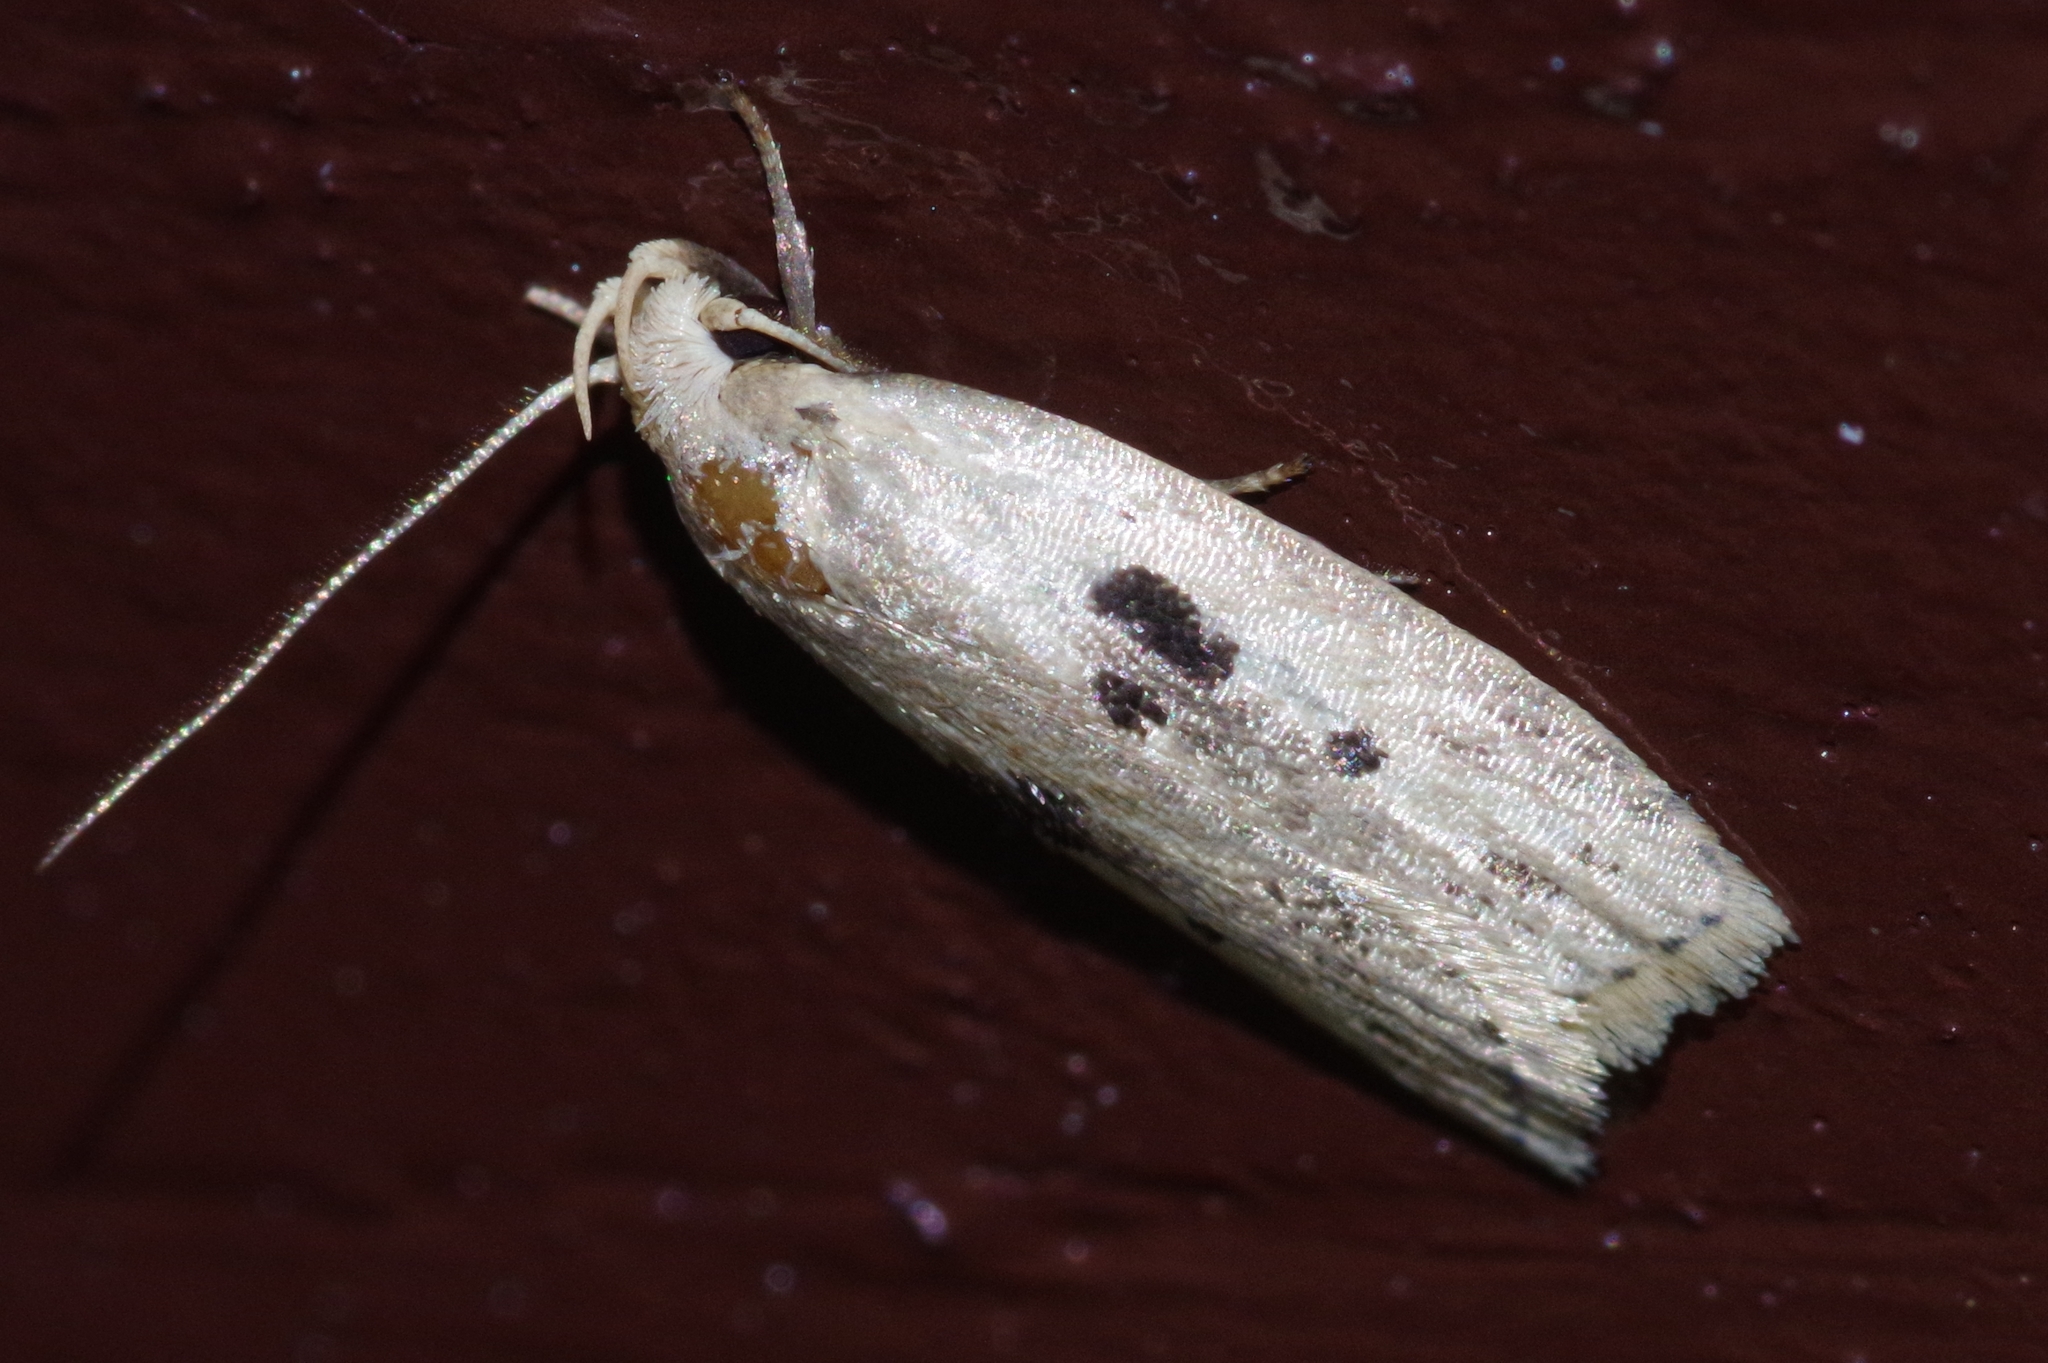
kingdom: Animalia
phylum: Arthropoda
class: Insecta
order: Lepidoptera
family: Peleopodidae
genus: Scythropiodes
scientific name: Scythropiodes issikii
